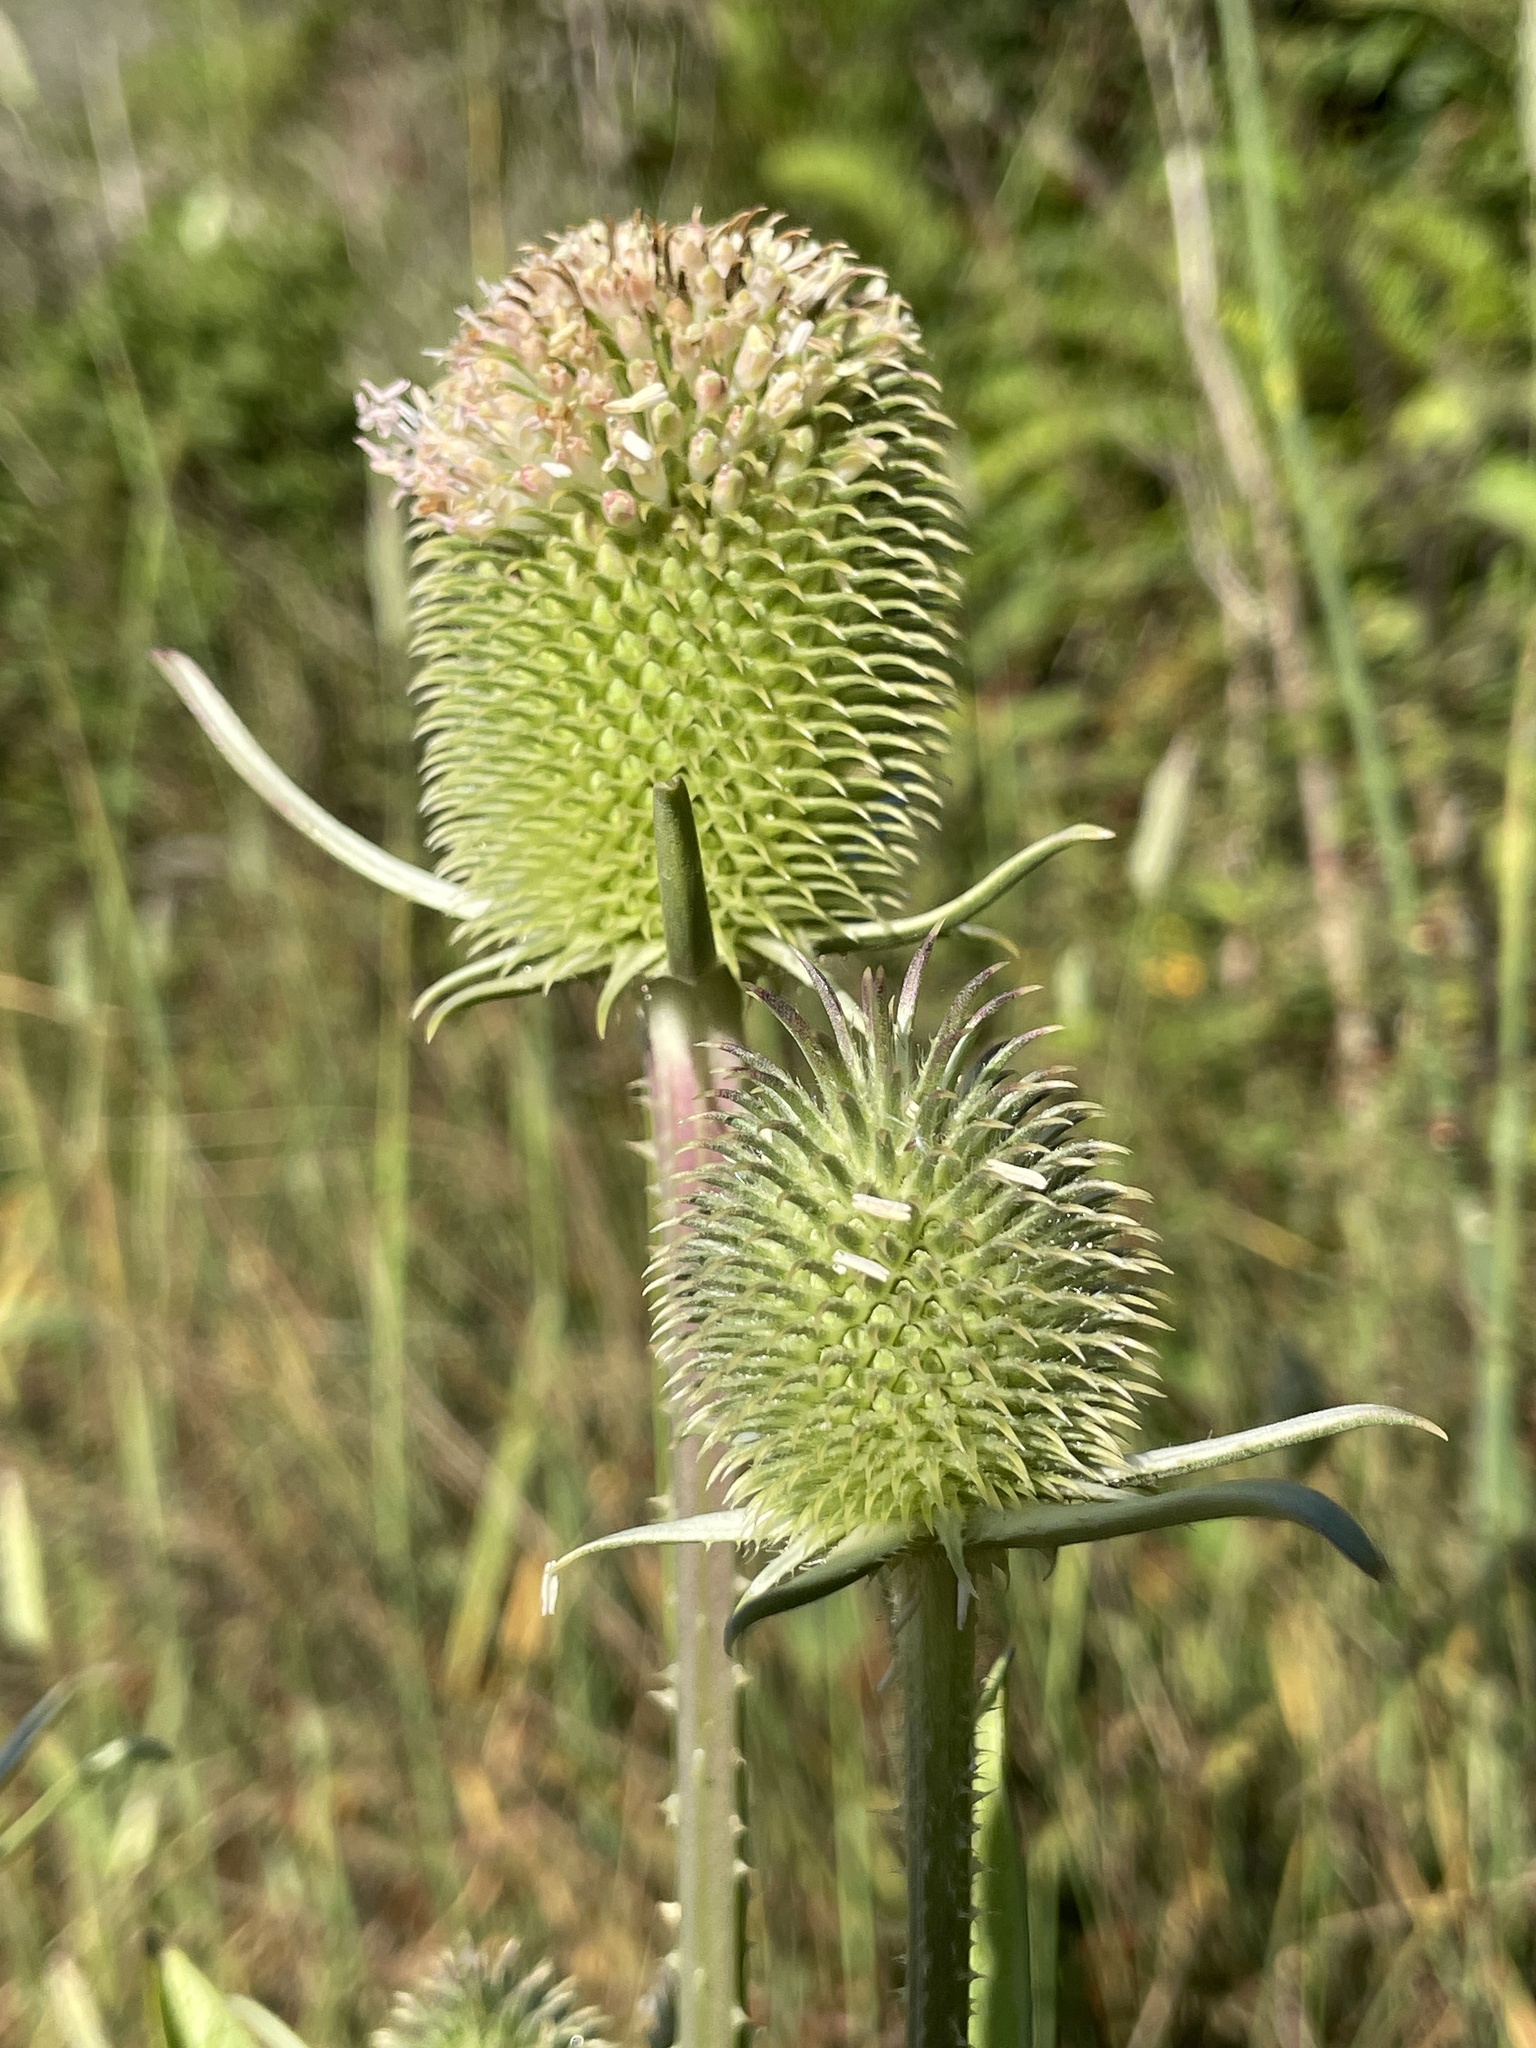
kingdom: Plantae
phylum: Tracheophyta
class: Magnoliopsida
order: Dipsacales
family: Caprifoliaceae
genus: Dipsacus
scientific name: Dipsacus sativus
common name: Fuller's teasel
